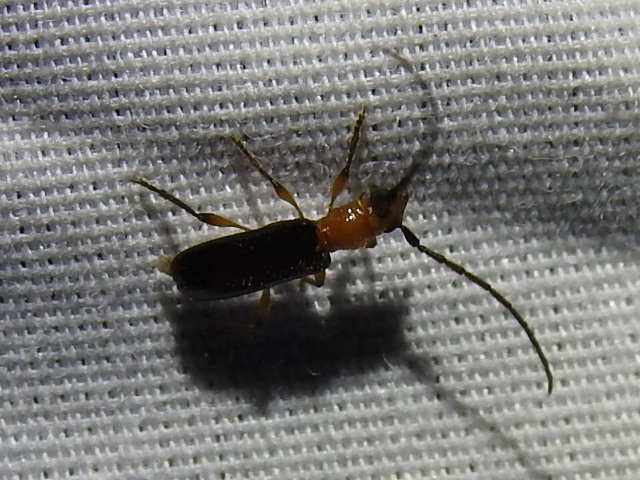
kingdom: Animalia
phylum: Arthropoda
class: Insecta
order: Coleoptera
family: Cerambycidae
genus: Obrium
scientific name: Obrium mozinnae
